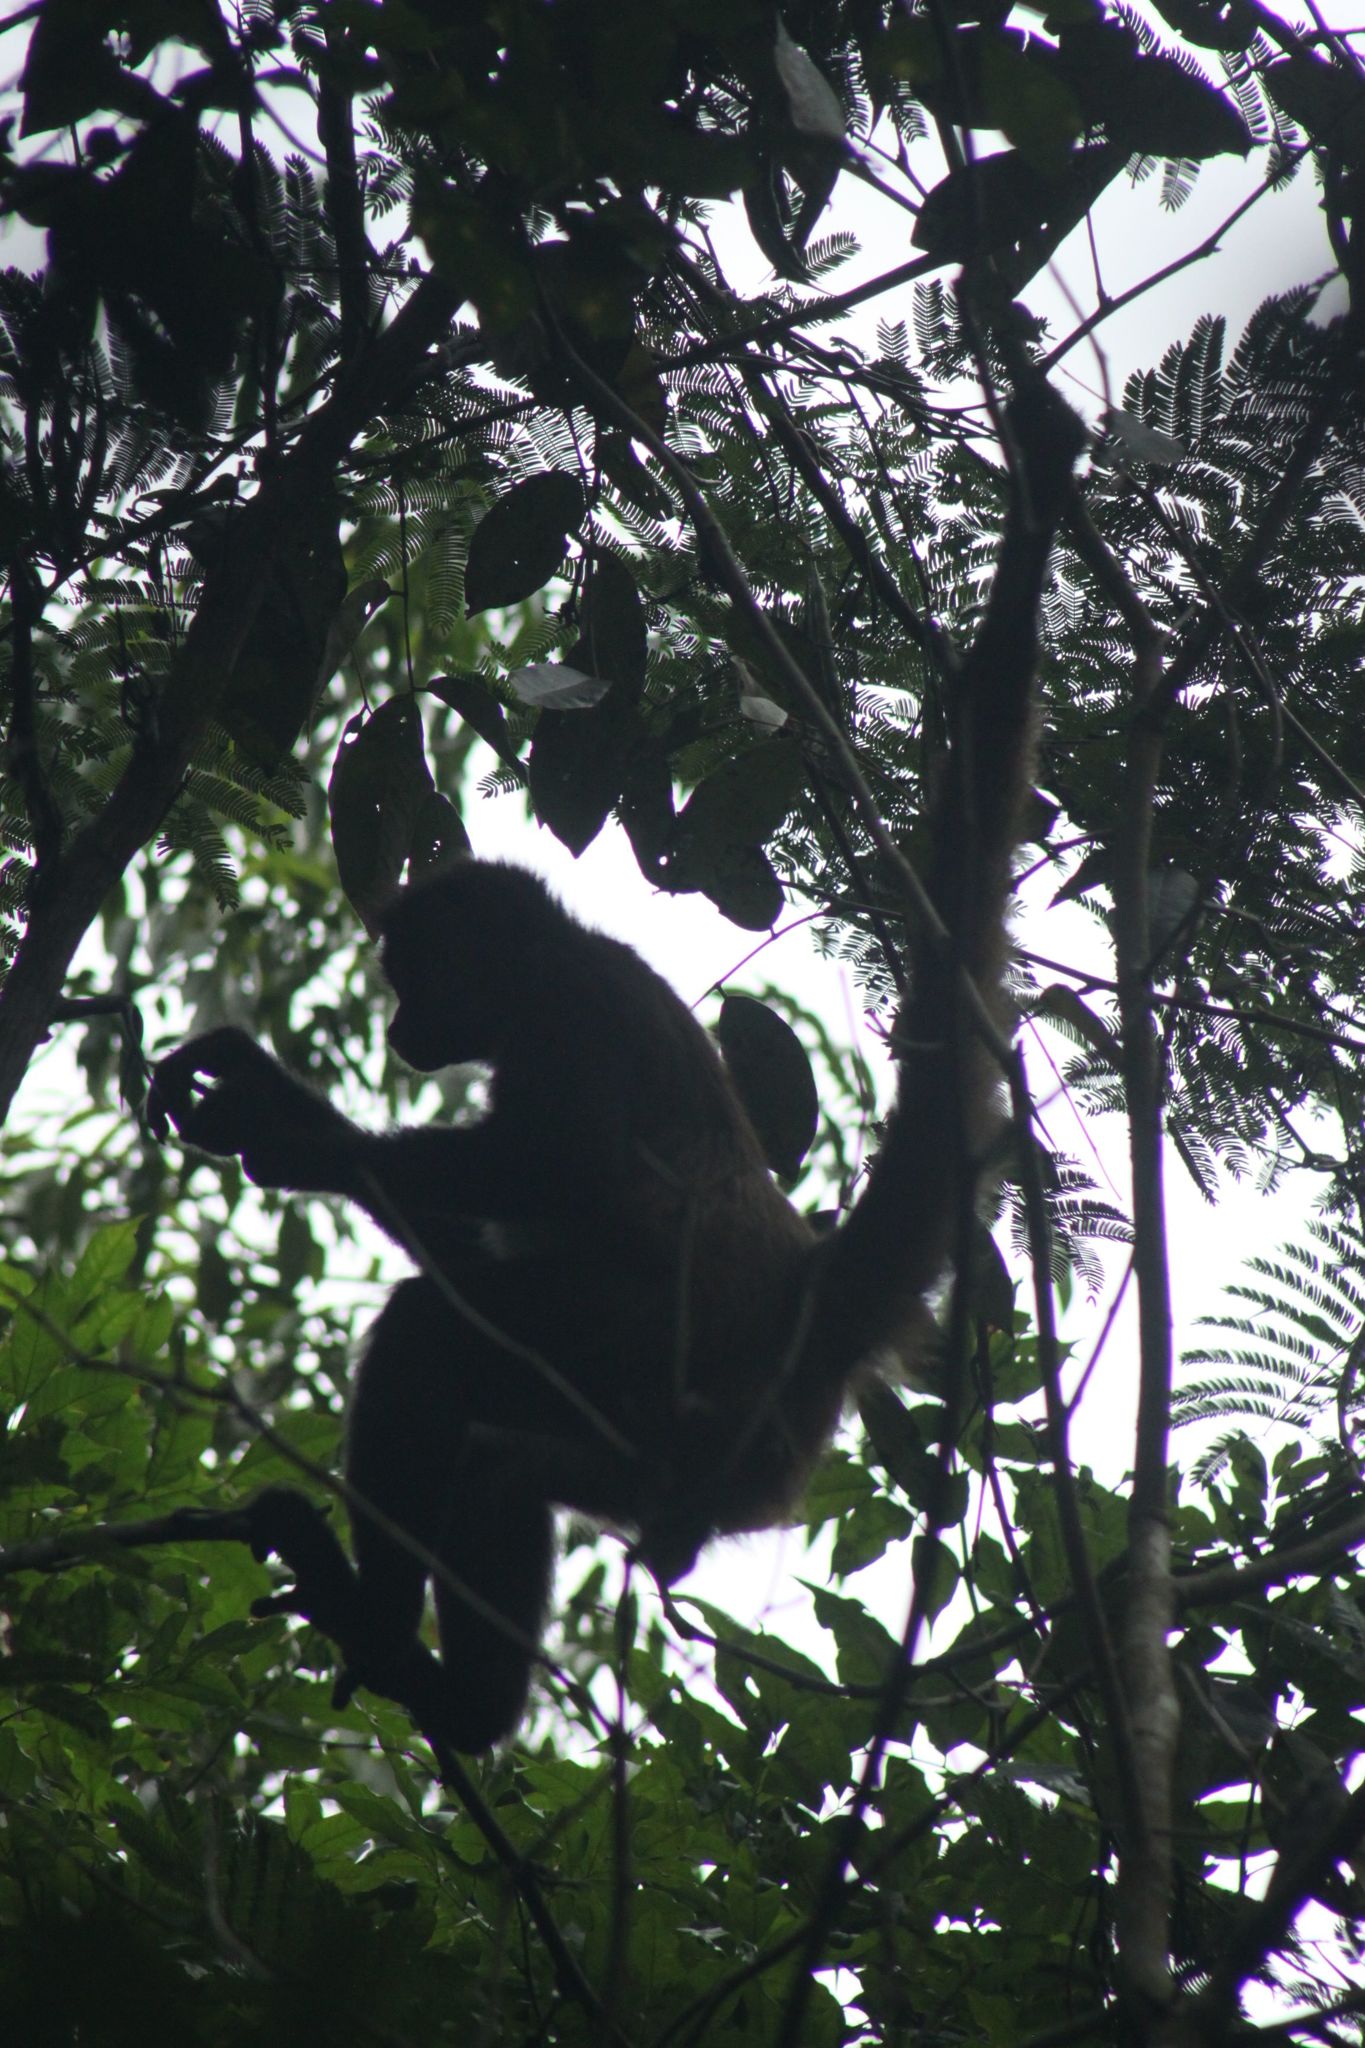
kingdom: Animalia
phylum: Chordata
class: Mammalia
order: Primates
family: Atelidae
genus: Ateles
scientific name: Ateles geoffroyi
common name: Black-handed spider monkey
